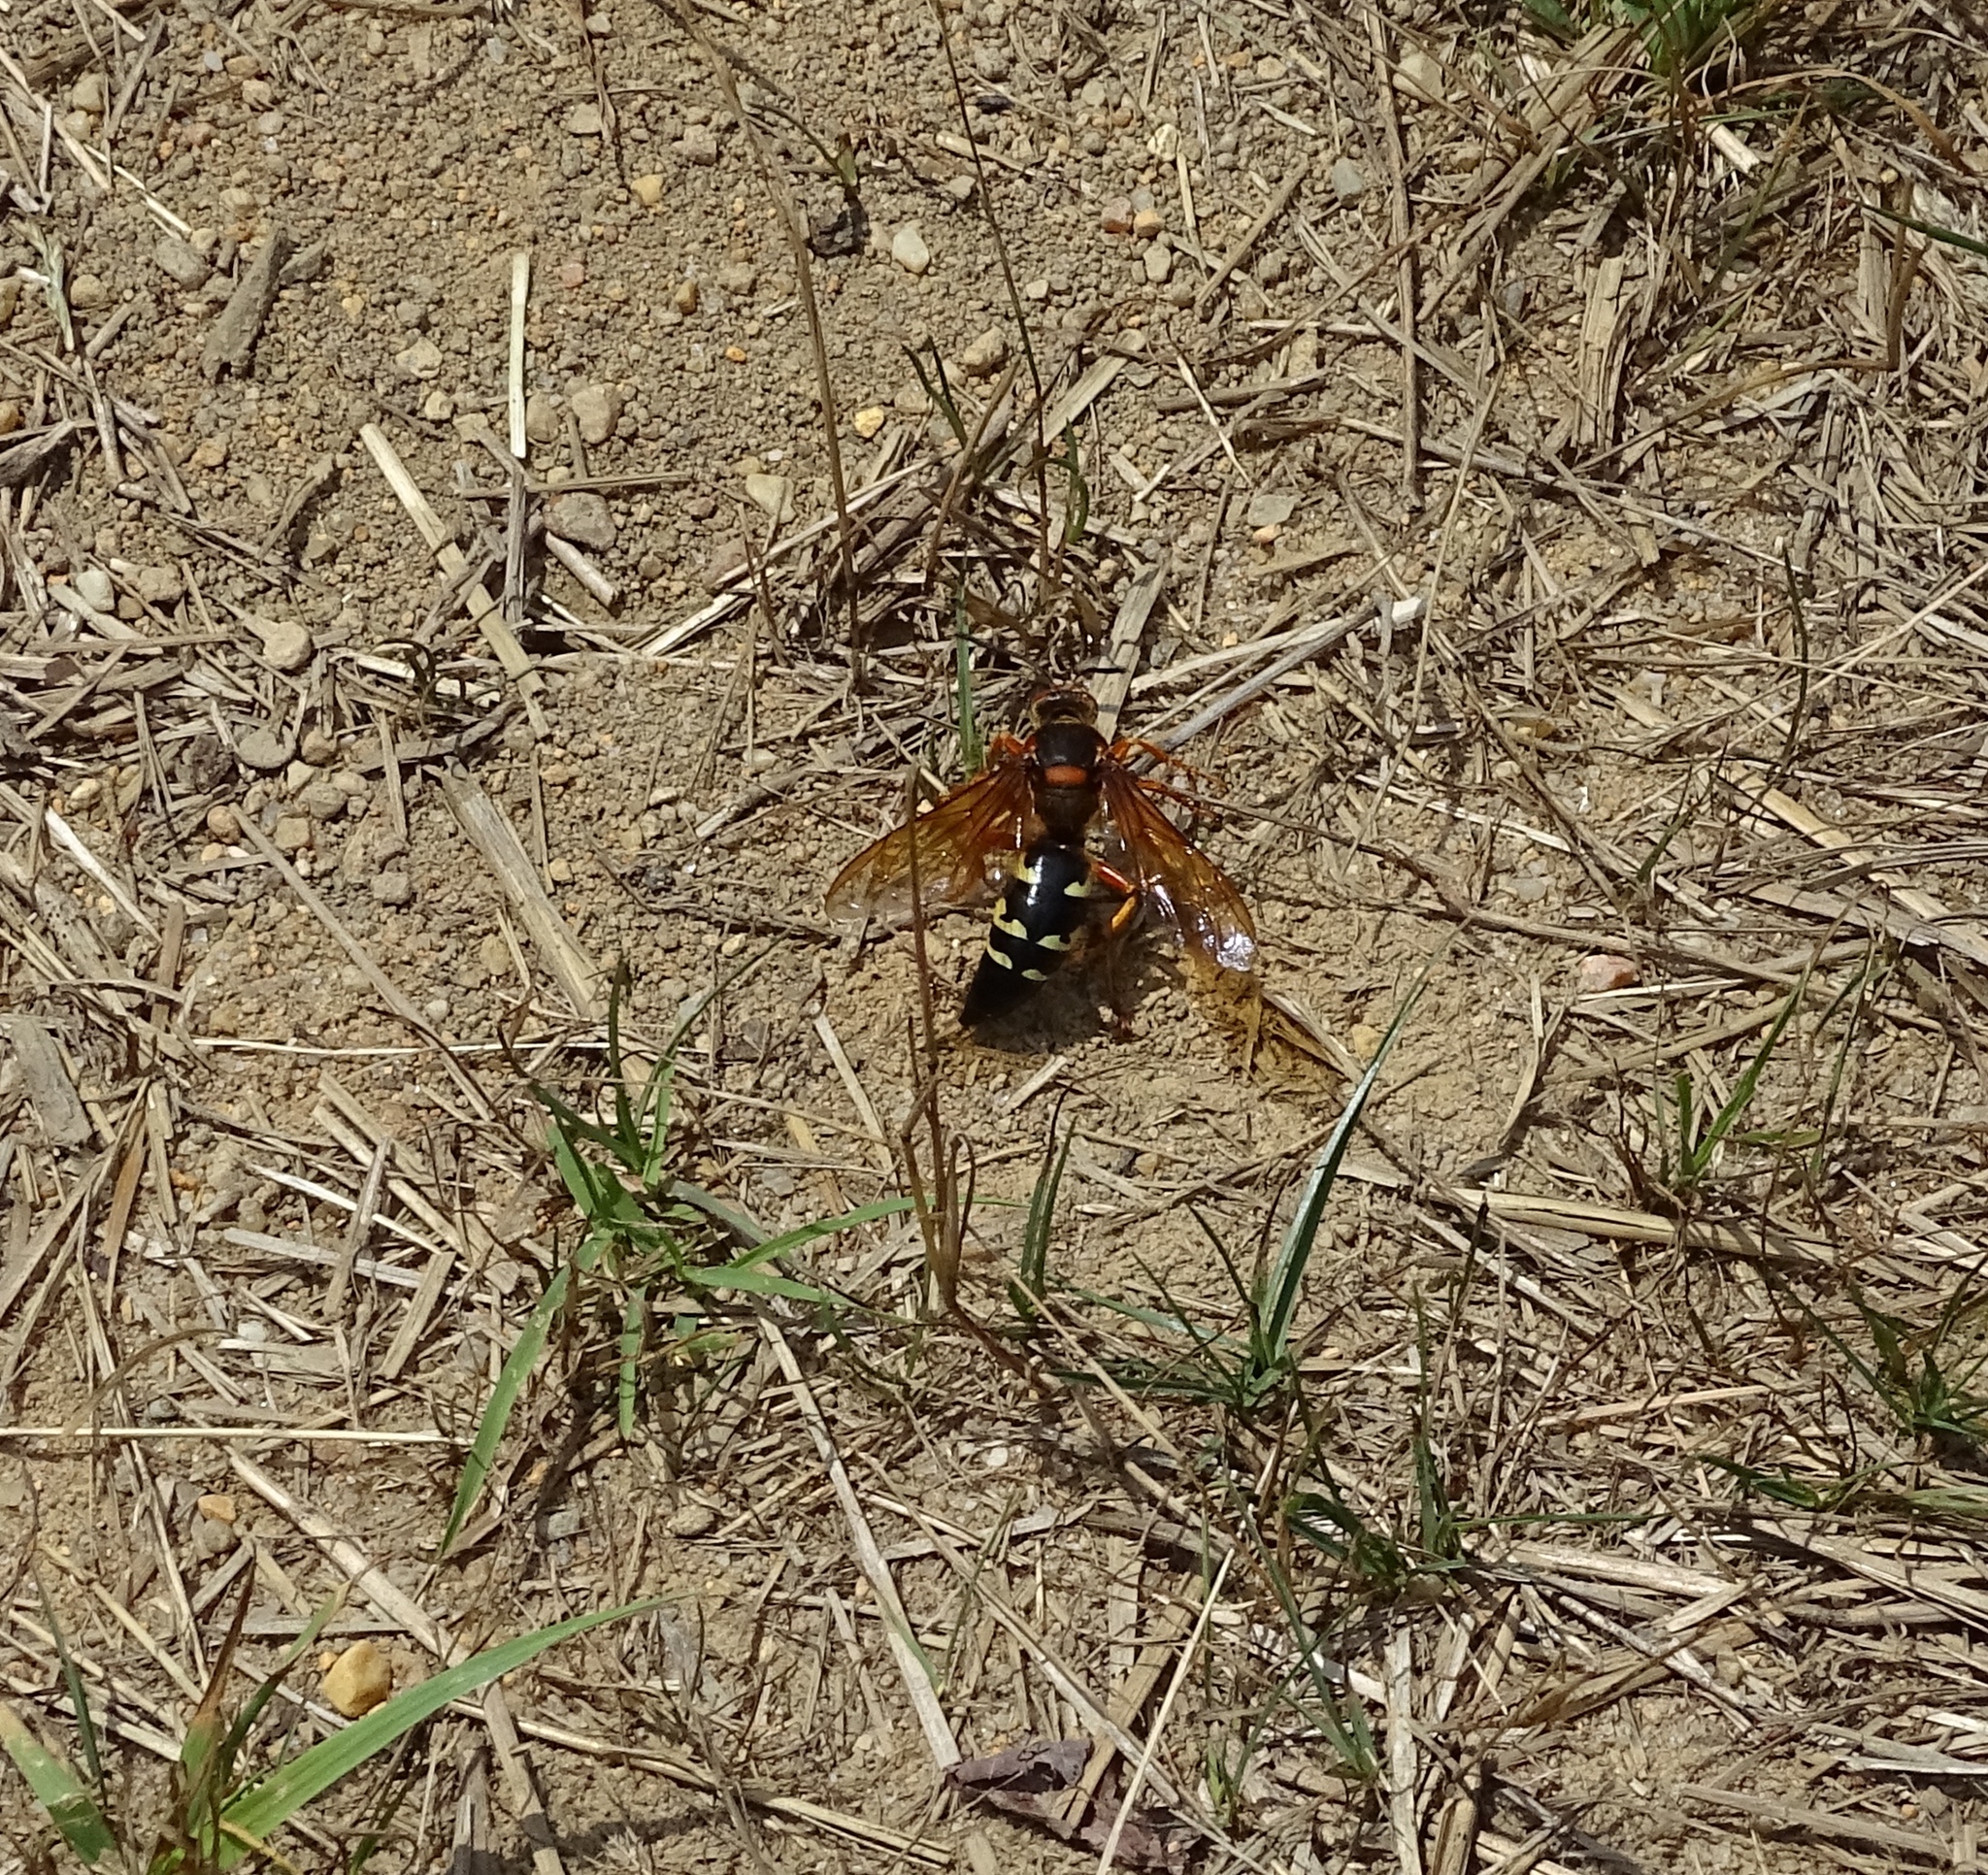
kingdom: Animalia
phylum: Arthropoda
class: Insecta
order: Hymenoptera
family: Crabronidae
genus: Sphecius
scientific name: Sphecius speciosus
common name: Cicada killer
